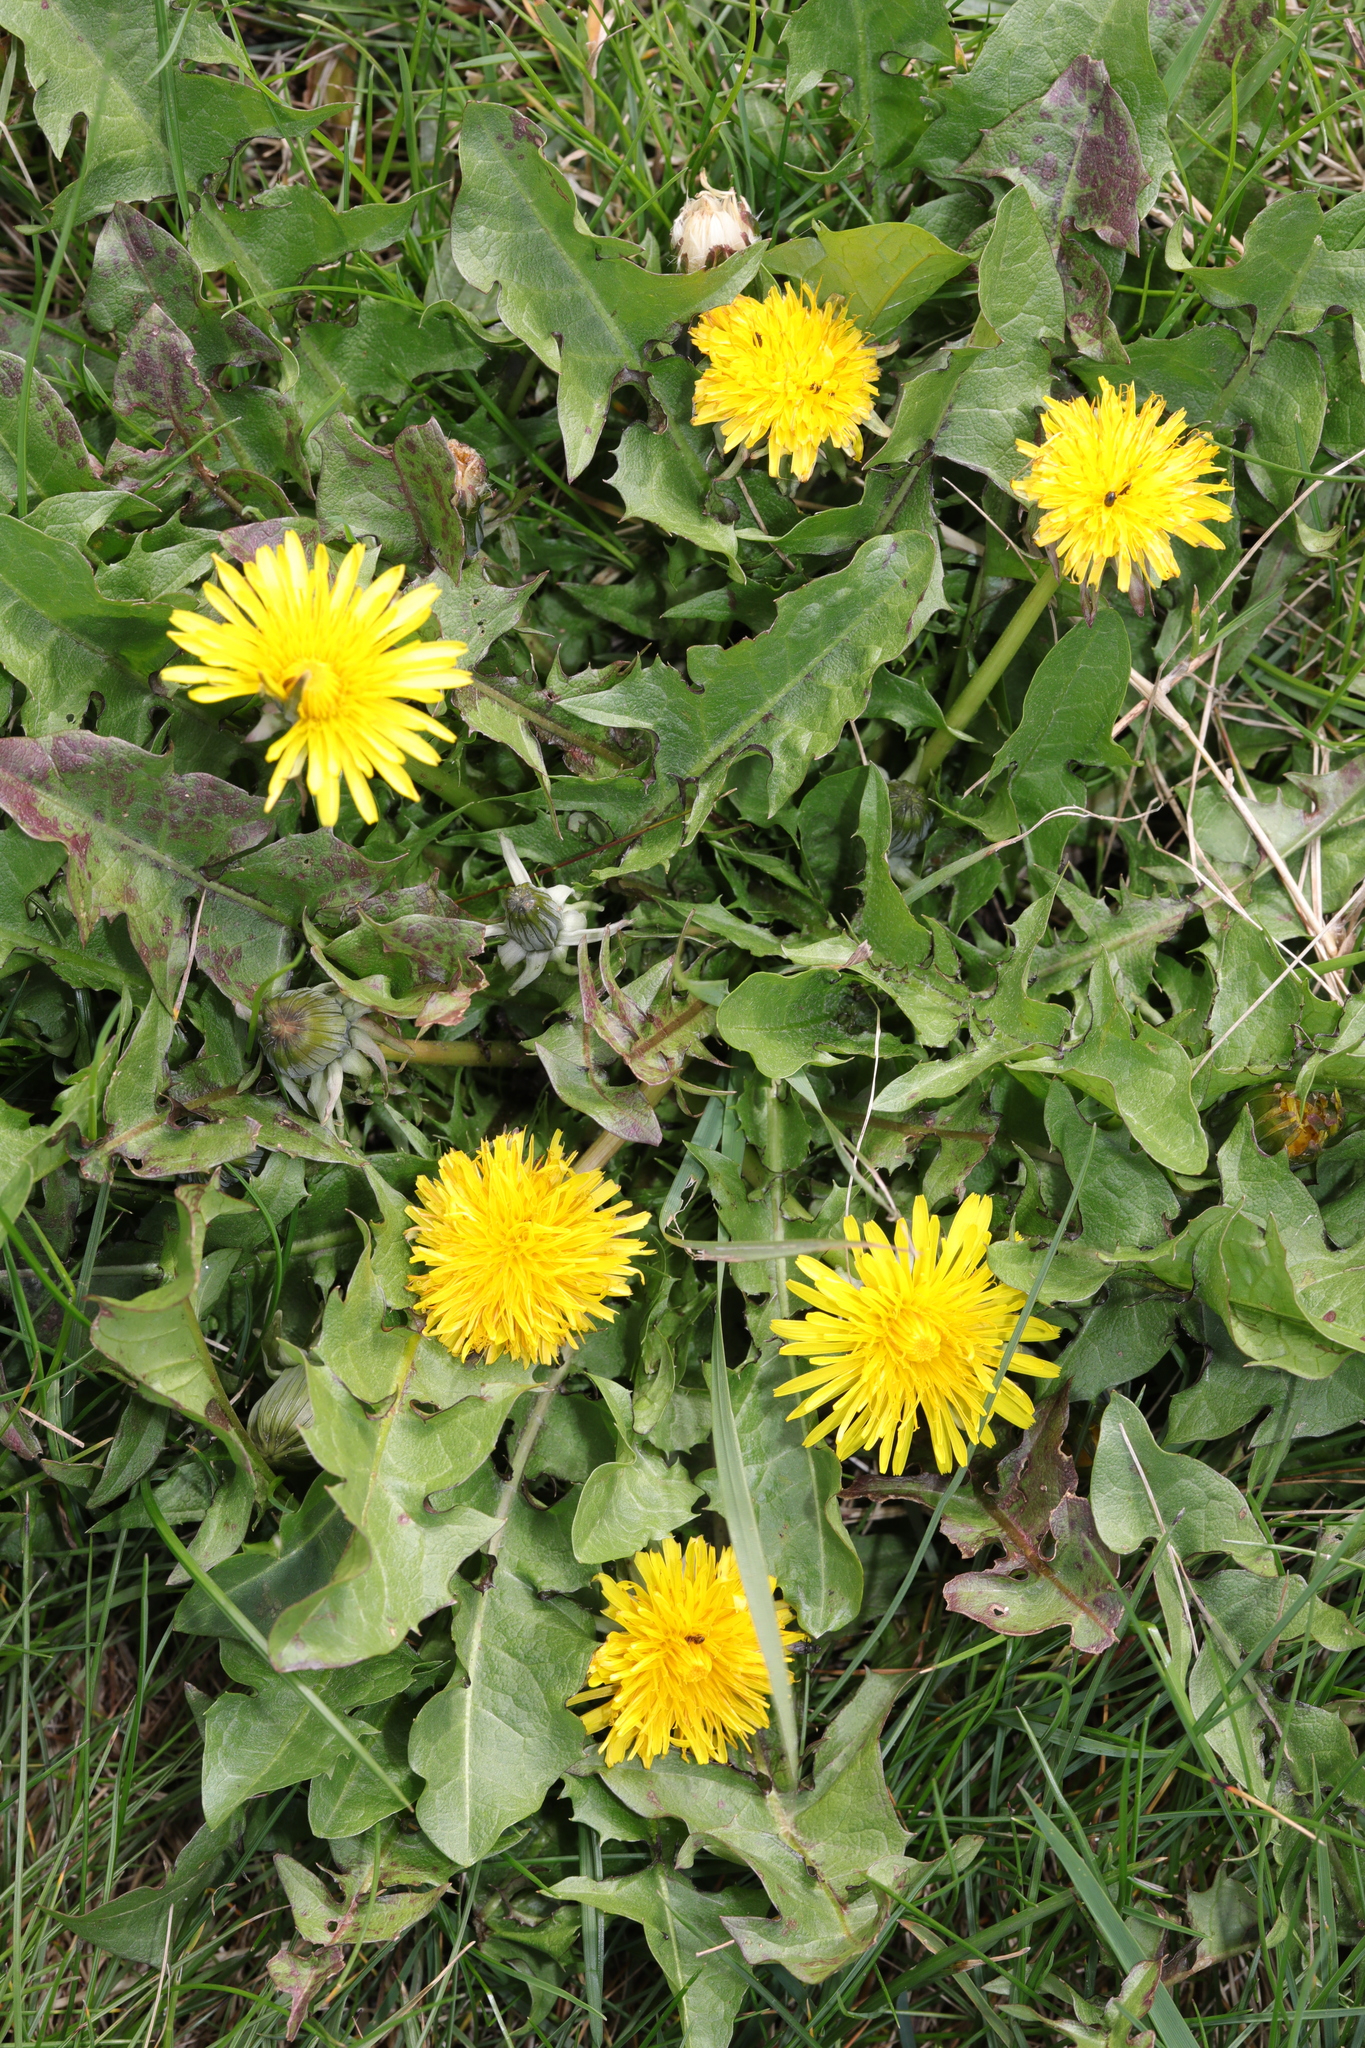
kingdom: Plantae
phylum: Tracheophyta
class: Magnoliopsida
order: Asterales
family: Asteraceae
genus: Taraxacum
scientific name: Taraxacum officinale
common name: Common dandelion
